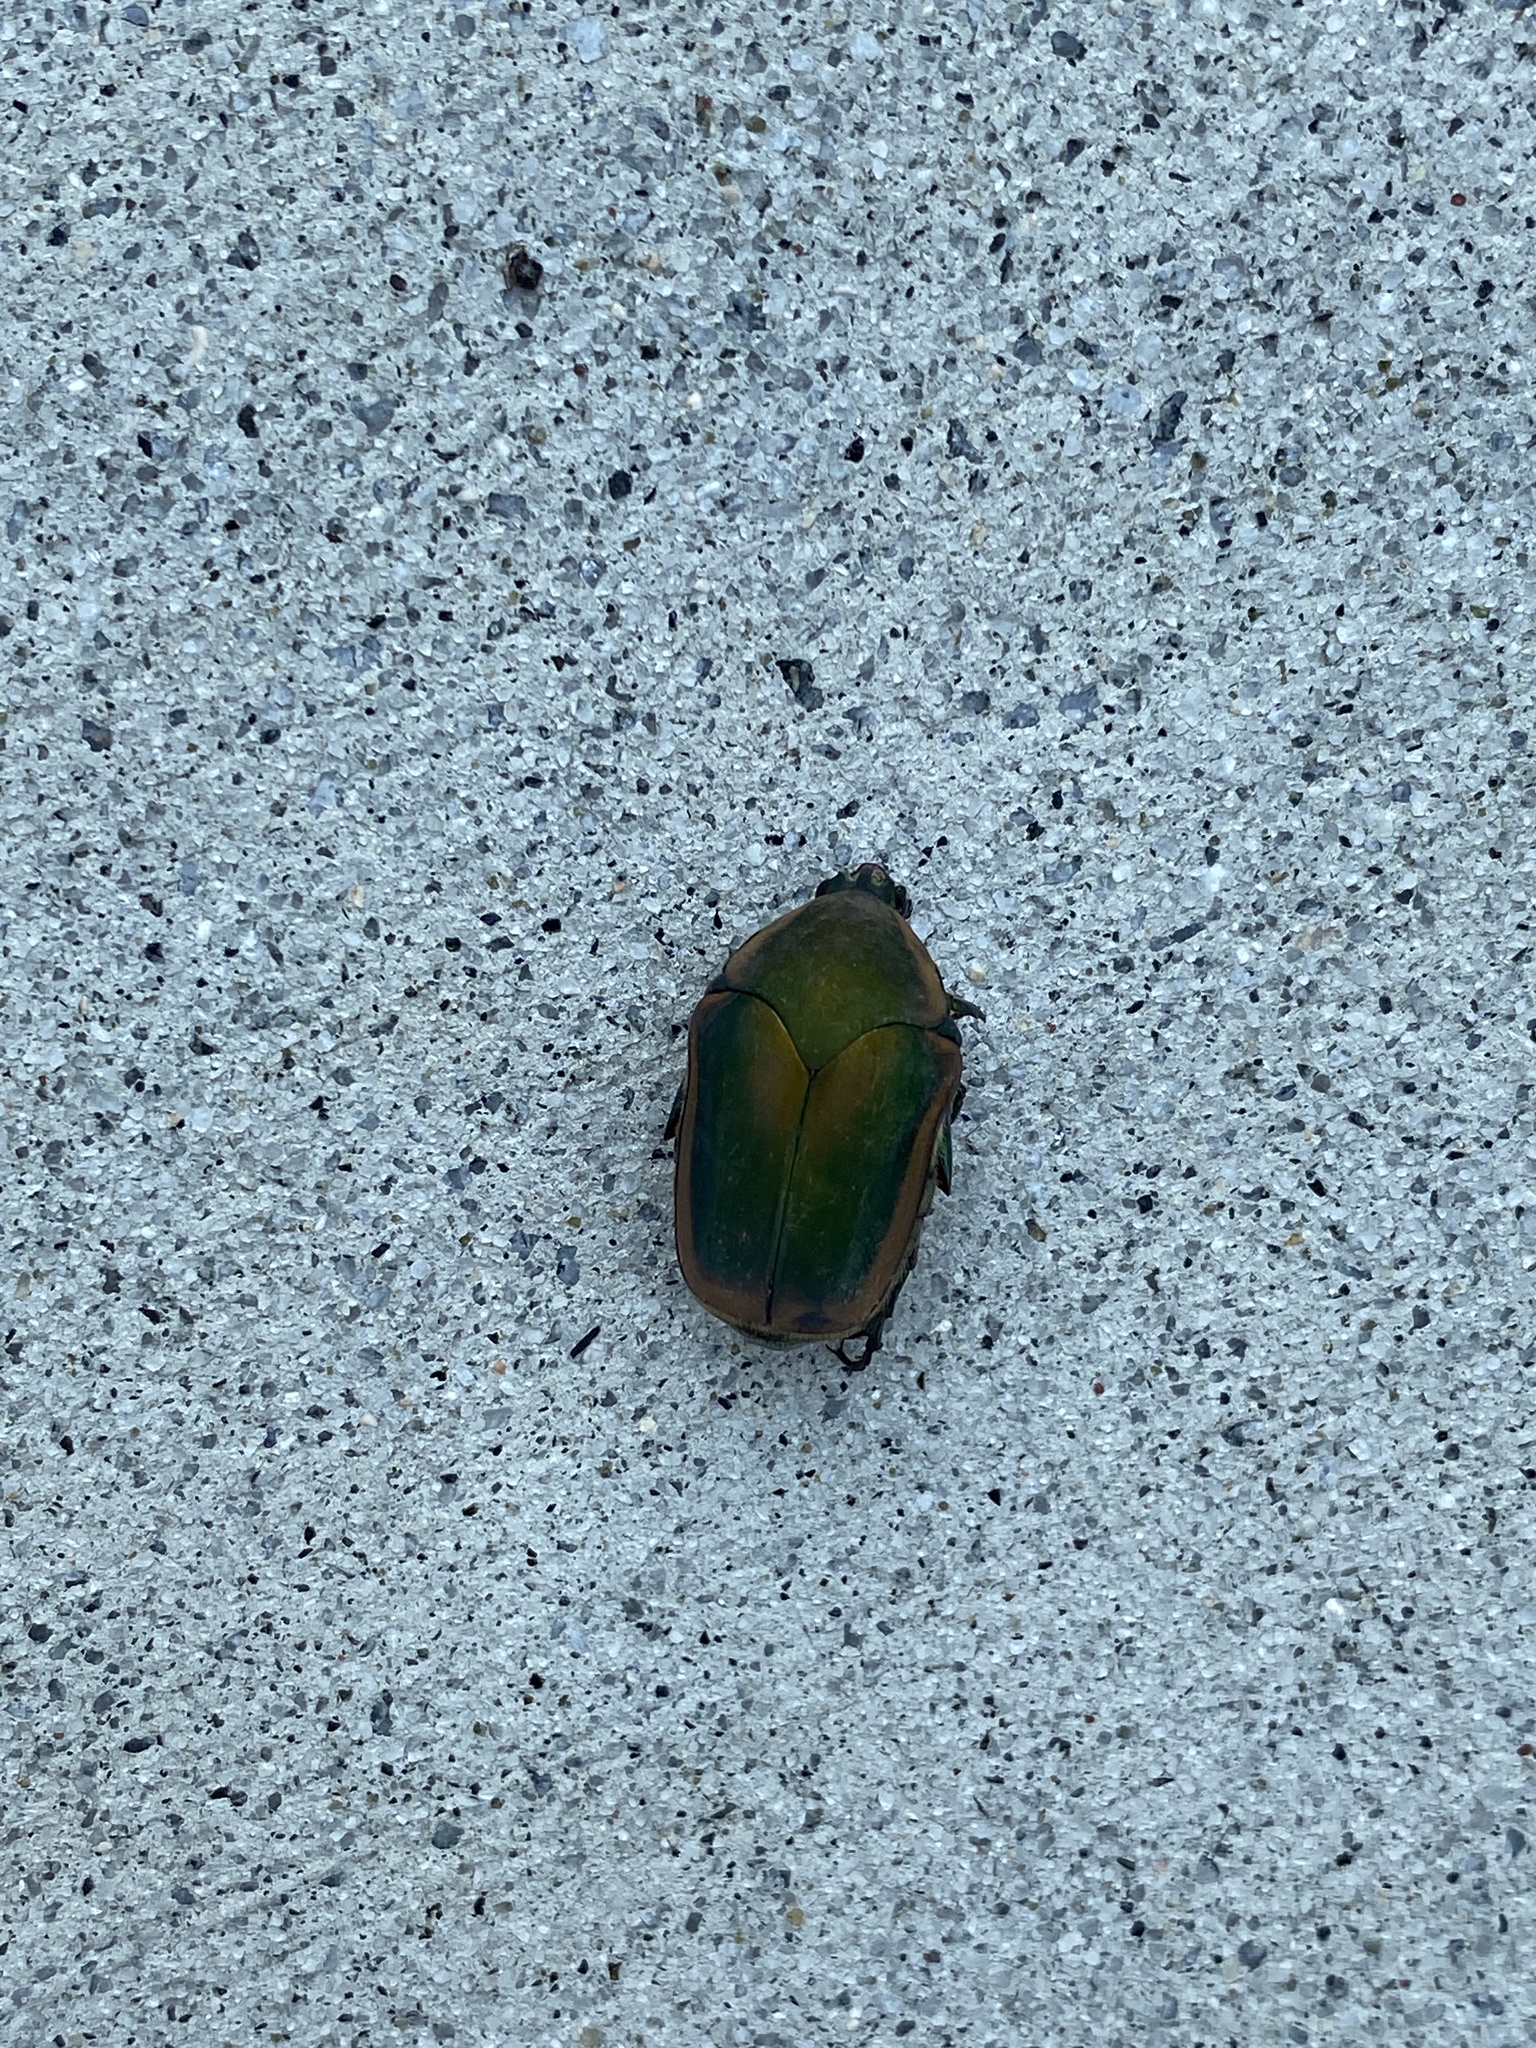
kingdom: Animalia
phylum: Arthropoda
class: Insecta
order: Coleoptera
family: Scarabaeidae
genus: Cotinis
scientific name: Cotinis nitida
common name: Common green june beetle
